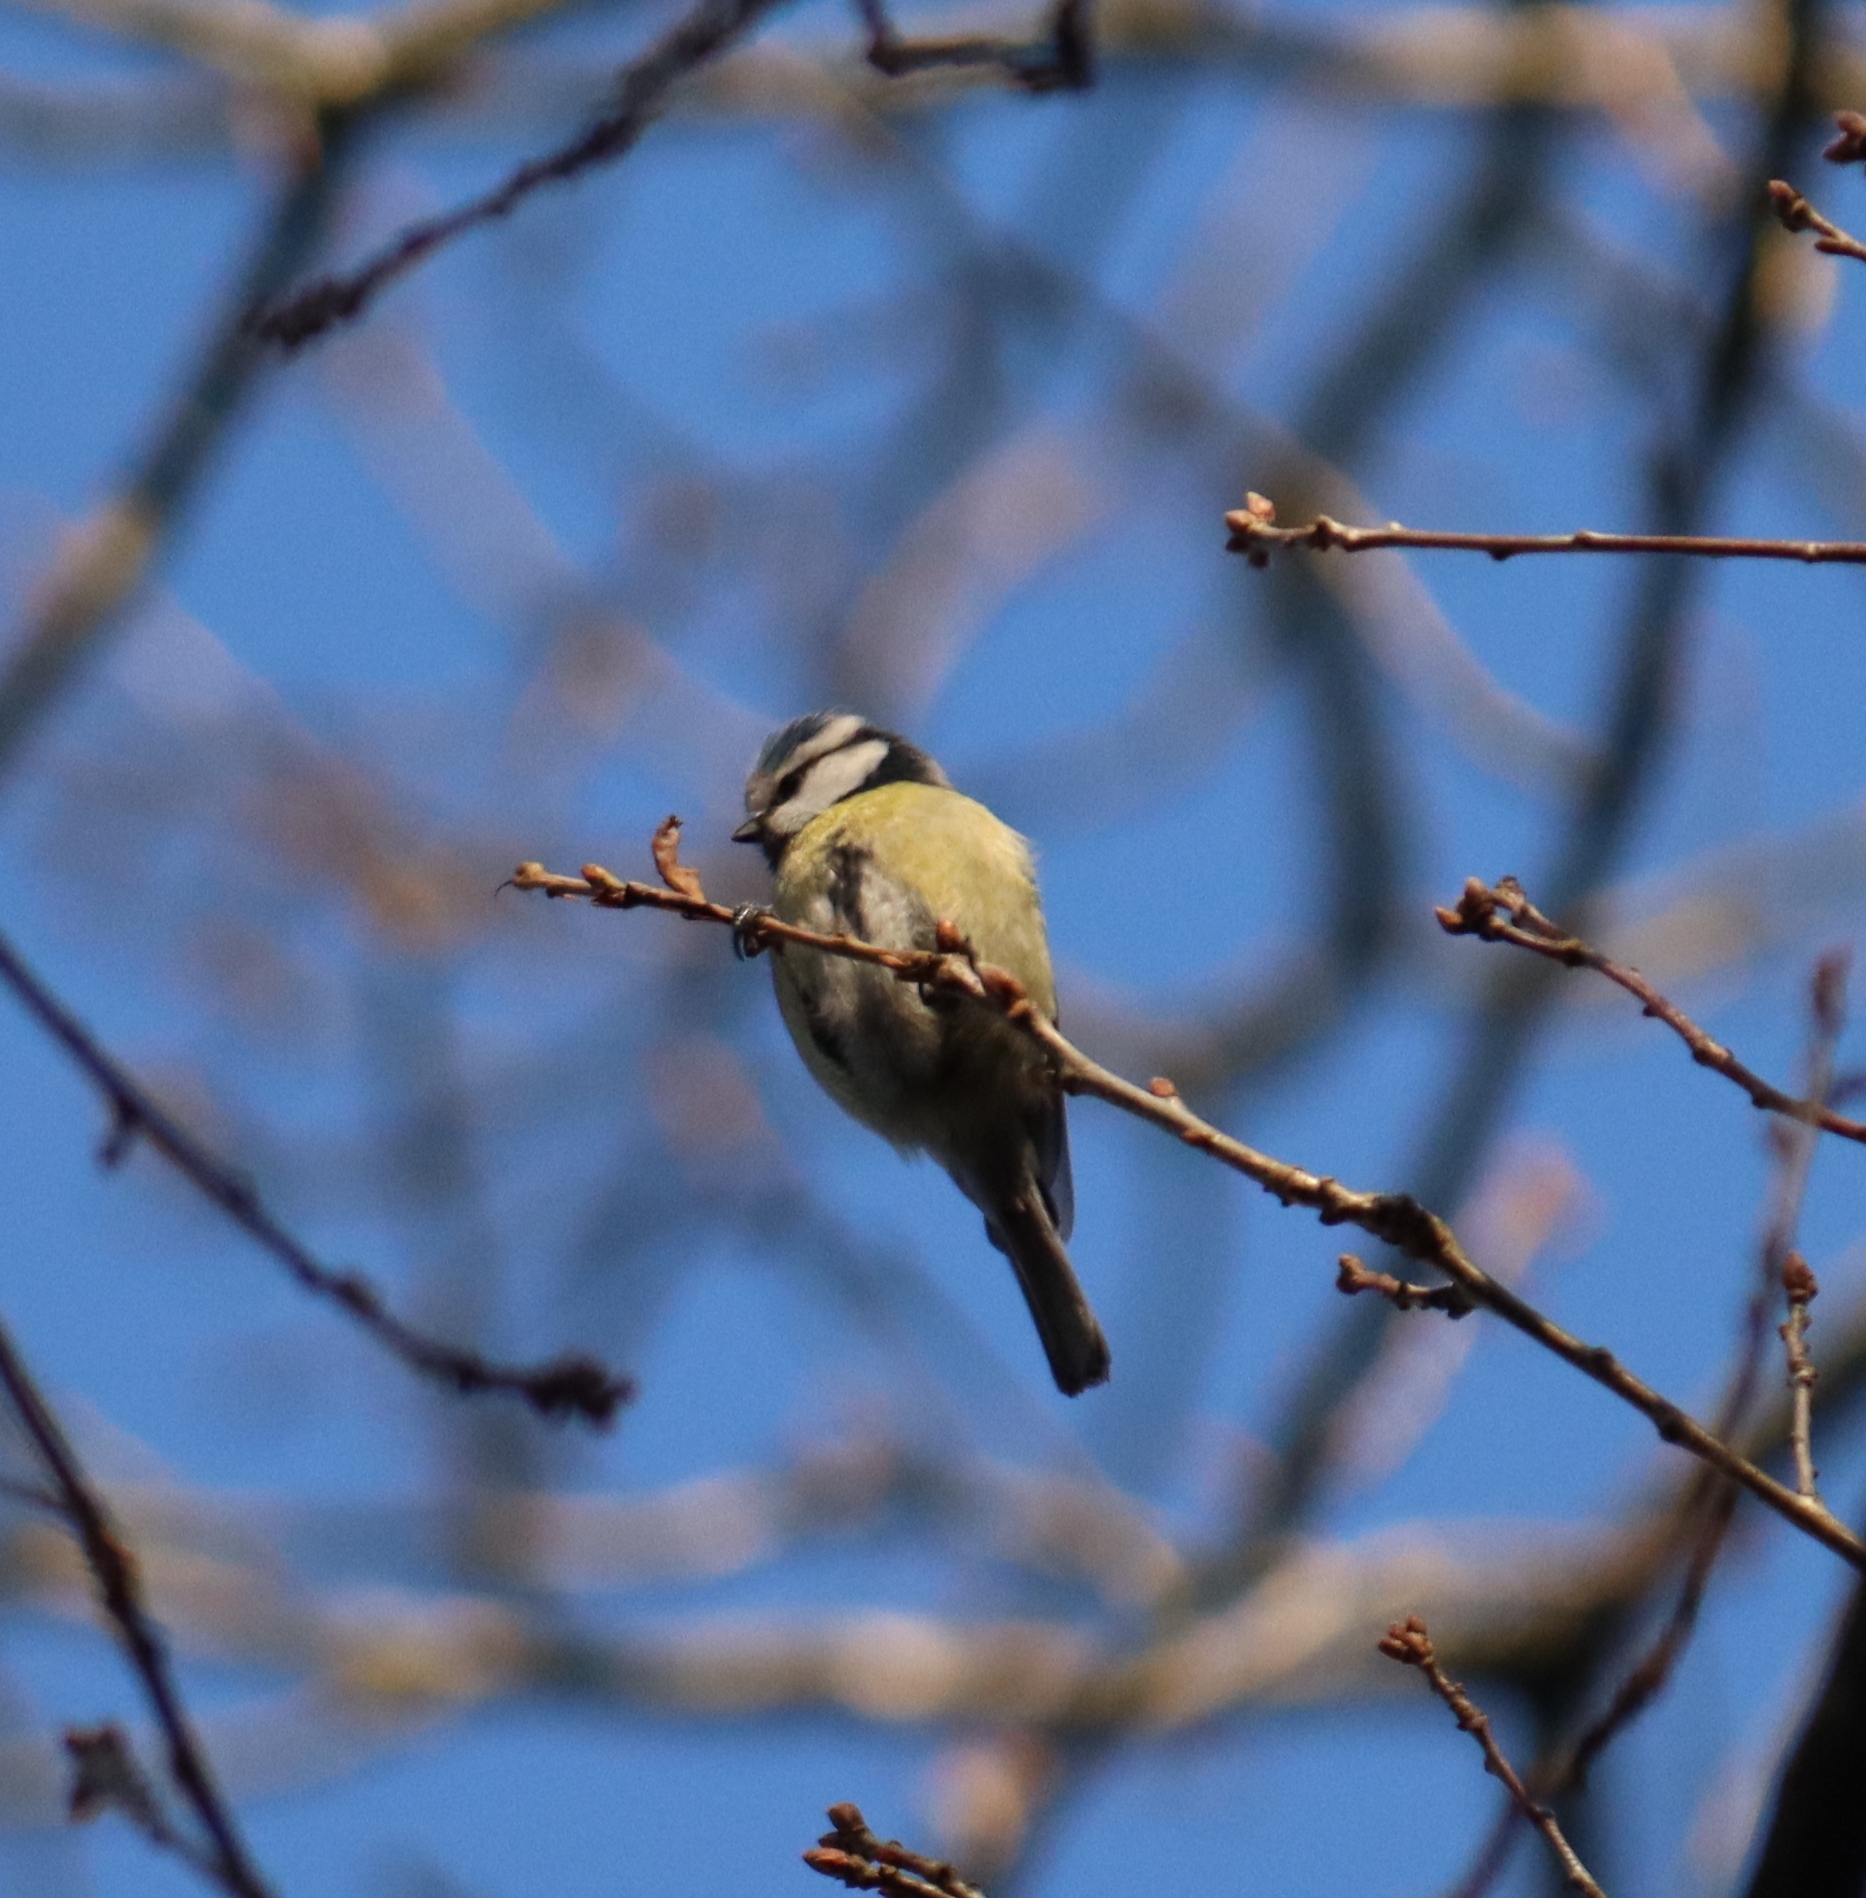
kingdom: Animalia
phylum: Chordata
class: Aves
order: Passeriformes
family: Paridae
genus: Cyanistes
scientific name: Cyanistes caeruleus
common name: Eurasian blue tit
